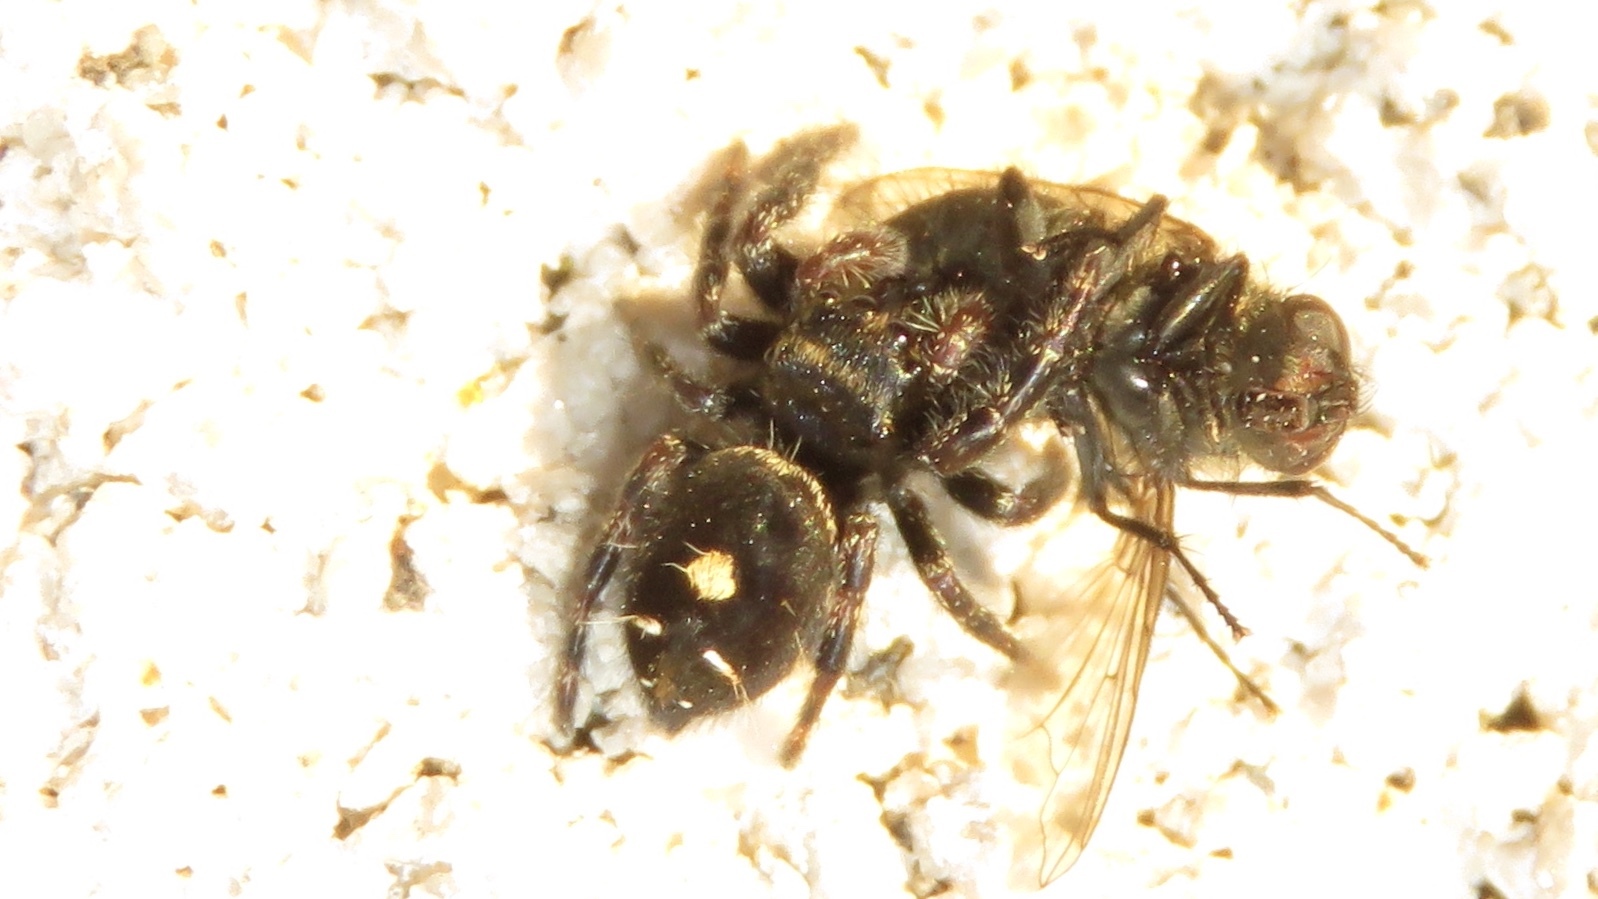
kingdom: Animalia
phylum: Arthropoda
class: Arachnida
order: Araneae
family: Salticidae
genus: Phidippus
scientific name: Phidippus audax
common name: Bold jumper
